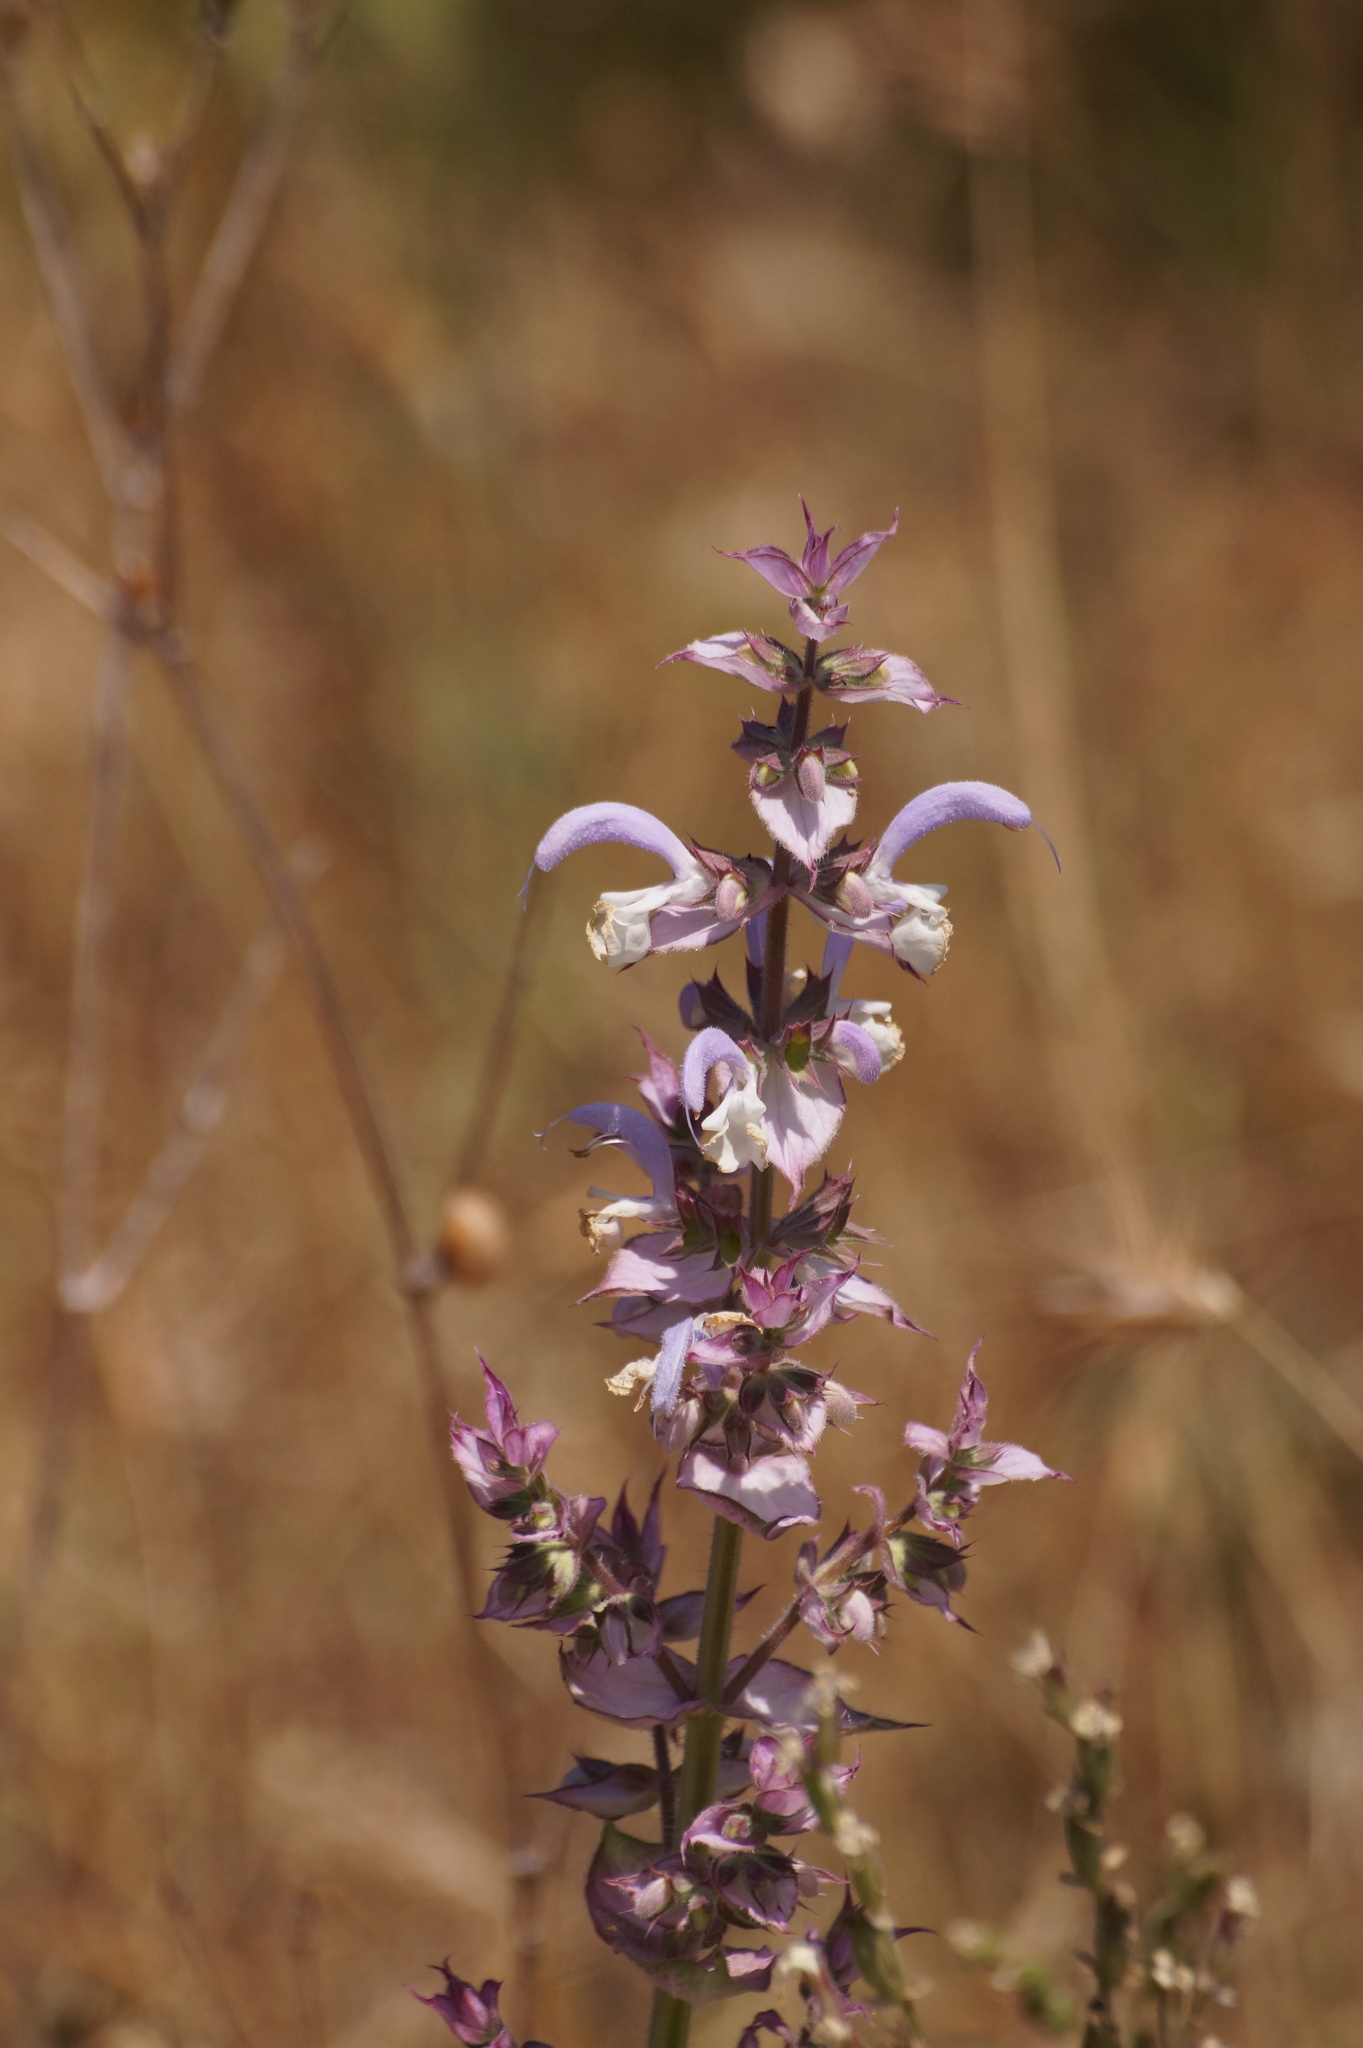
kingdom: Plantae
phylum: Tracheophyta
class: Magnoliopsida
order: Lamiales
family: Lamiaceae
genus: Salvia
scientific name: Salvia sclarea
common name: Clary
